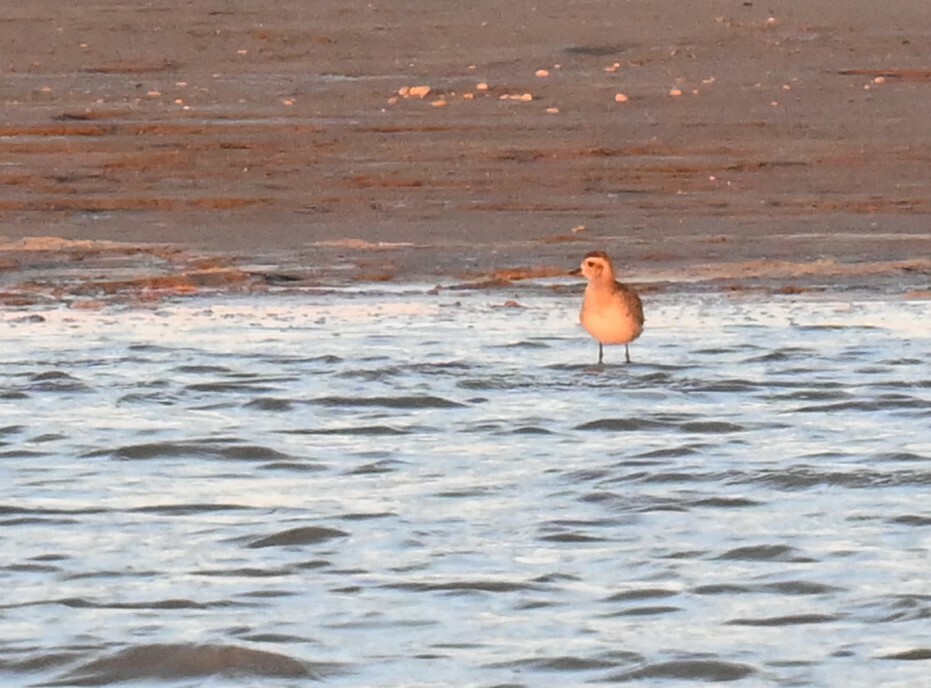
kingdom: Animalia
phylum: Chordata
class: Aves
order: Charadriiformes
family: Charadriidae
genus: Pluvialis
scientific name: Pluvialis dominica
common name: American golden plover
